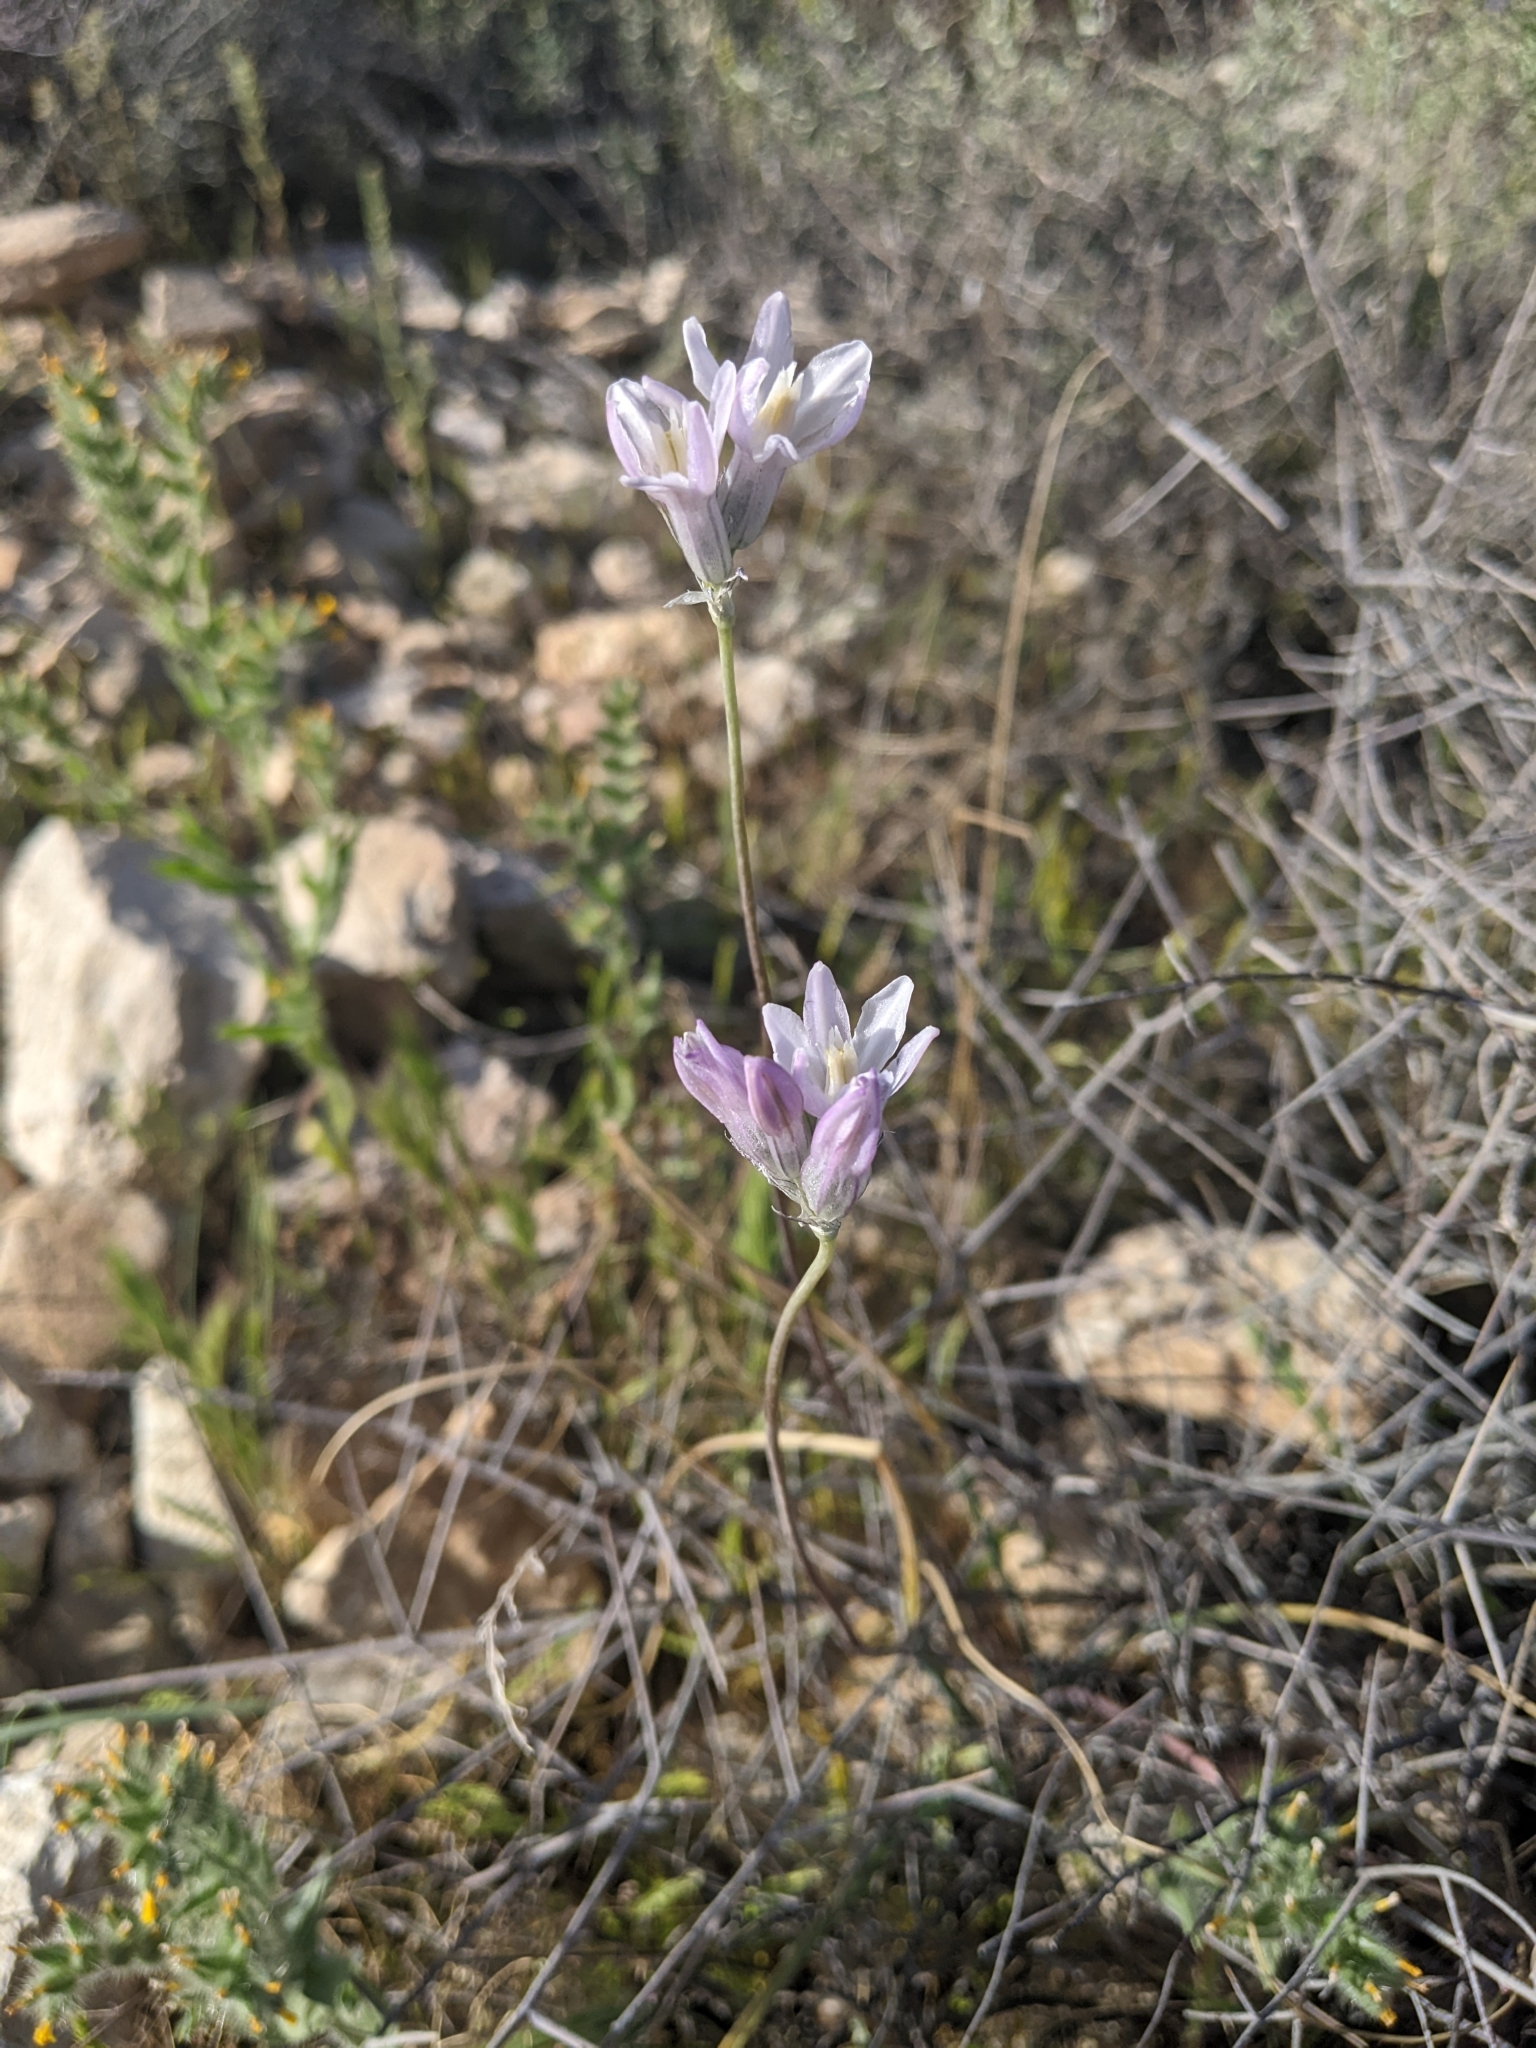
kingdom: Plantae
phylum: Tracheophyta
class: Liliopsida
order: Asparagales
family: Asparagaceae
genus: Dipterostemon
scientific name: Dipterostemon capitatus
